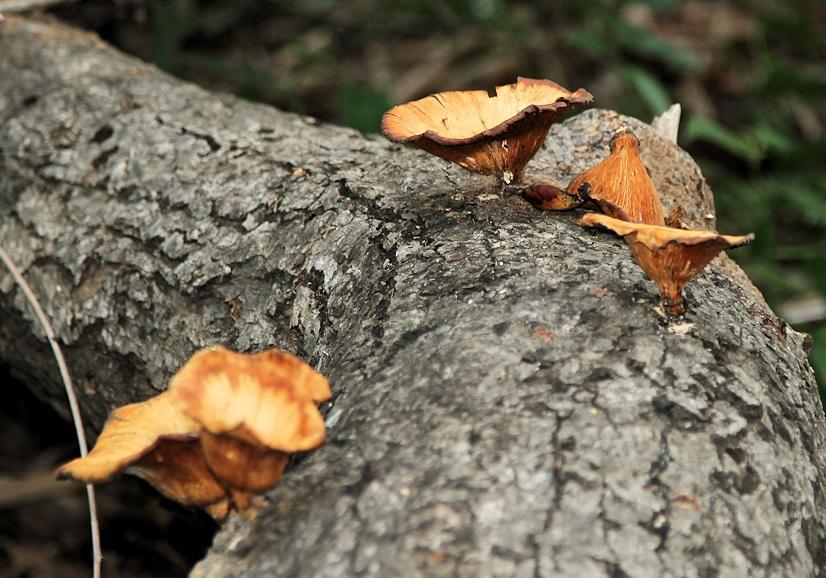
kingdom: Fungi
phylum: Basidiomycota
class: Agaricomycetes
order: Polyporales
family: Polyporaceae
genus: Lentinus
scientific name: Lentinus sajor-caju
